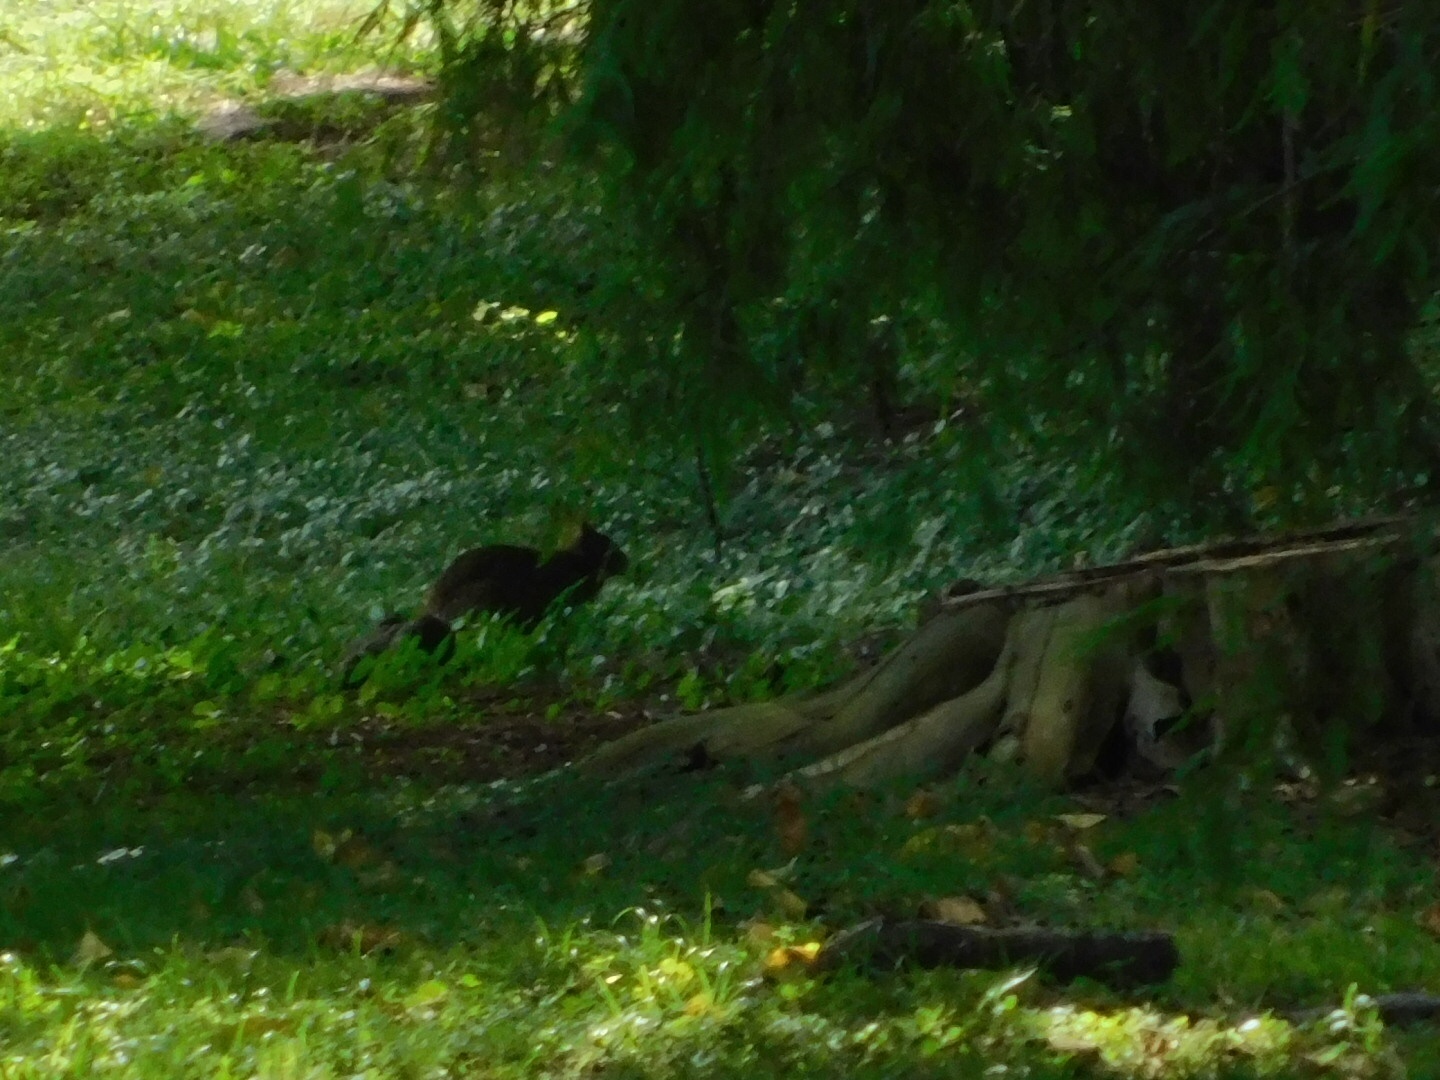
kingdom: Animalia
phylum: Chordata
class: Mammalia
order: Lagomorpha
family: Leporidae
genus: Sylvilagus
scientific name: Sylvilagus palustris
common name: Marsh rabbit
